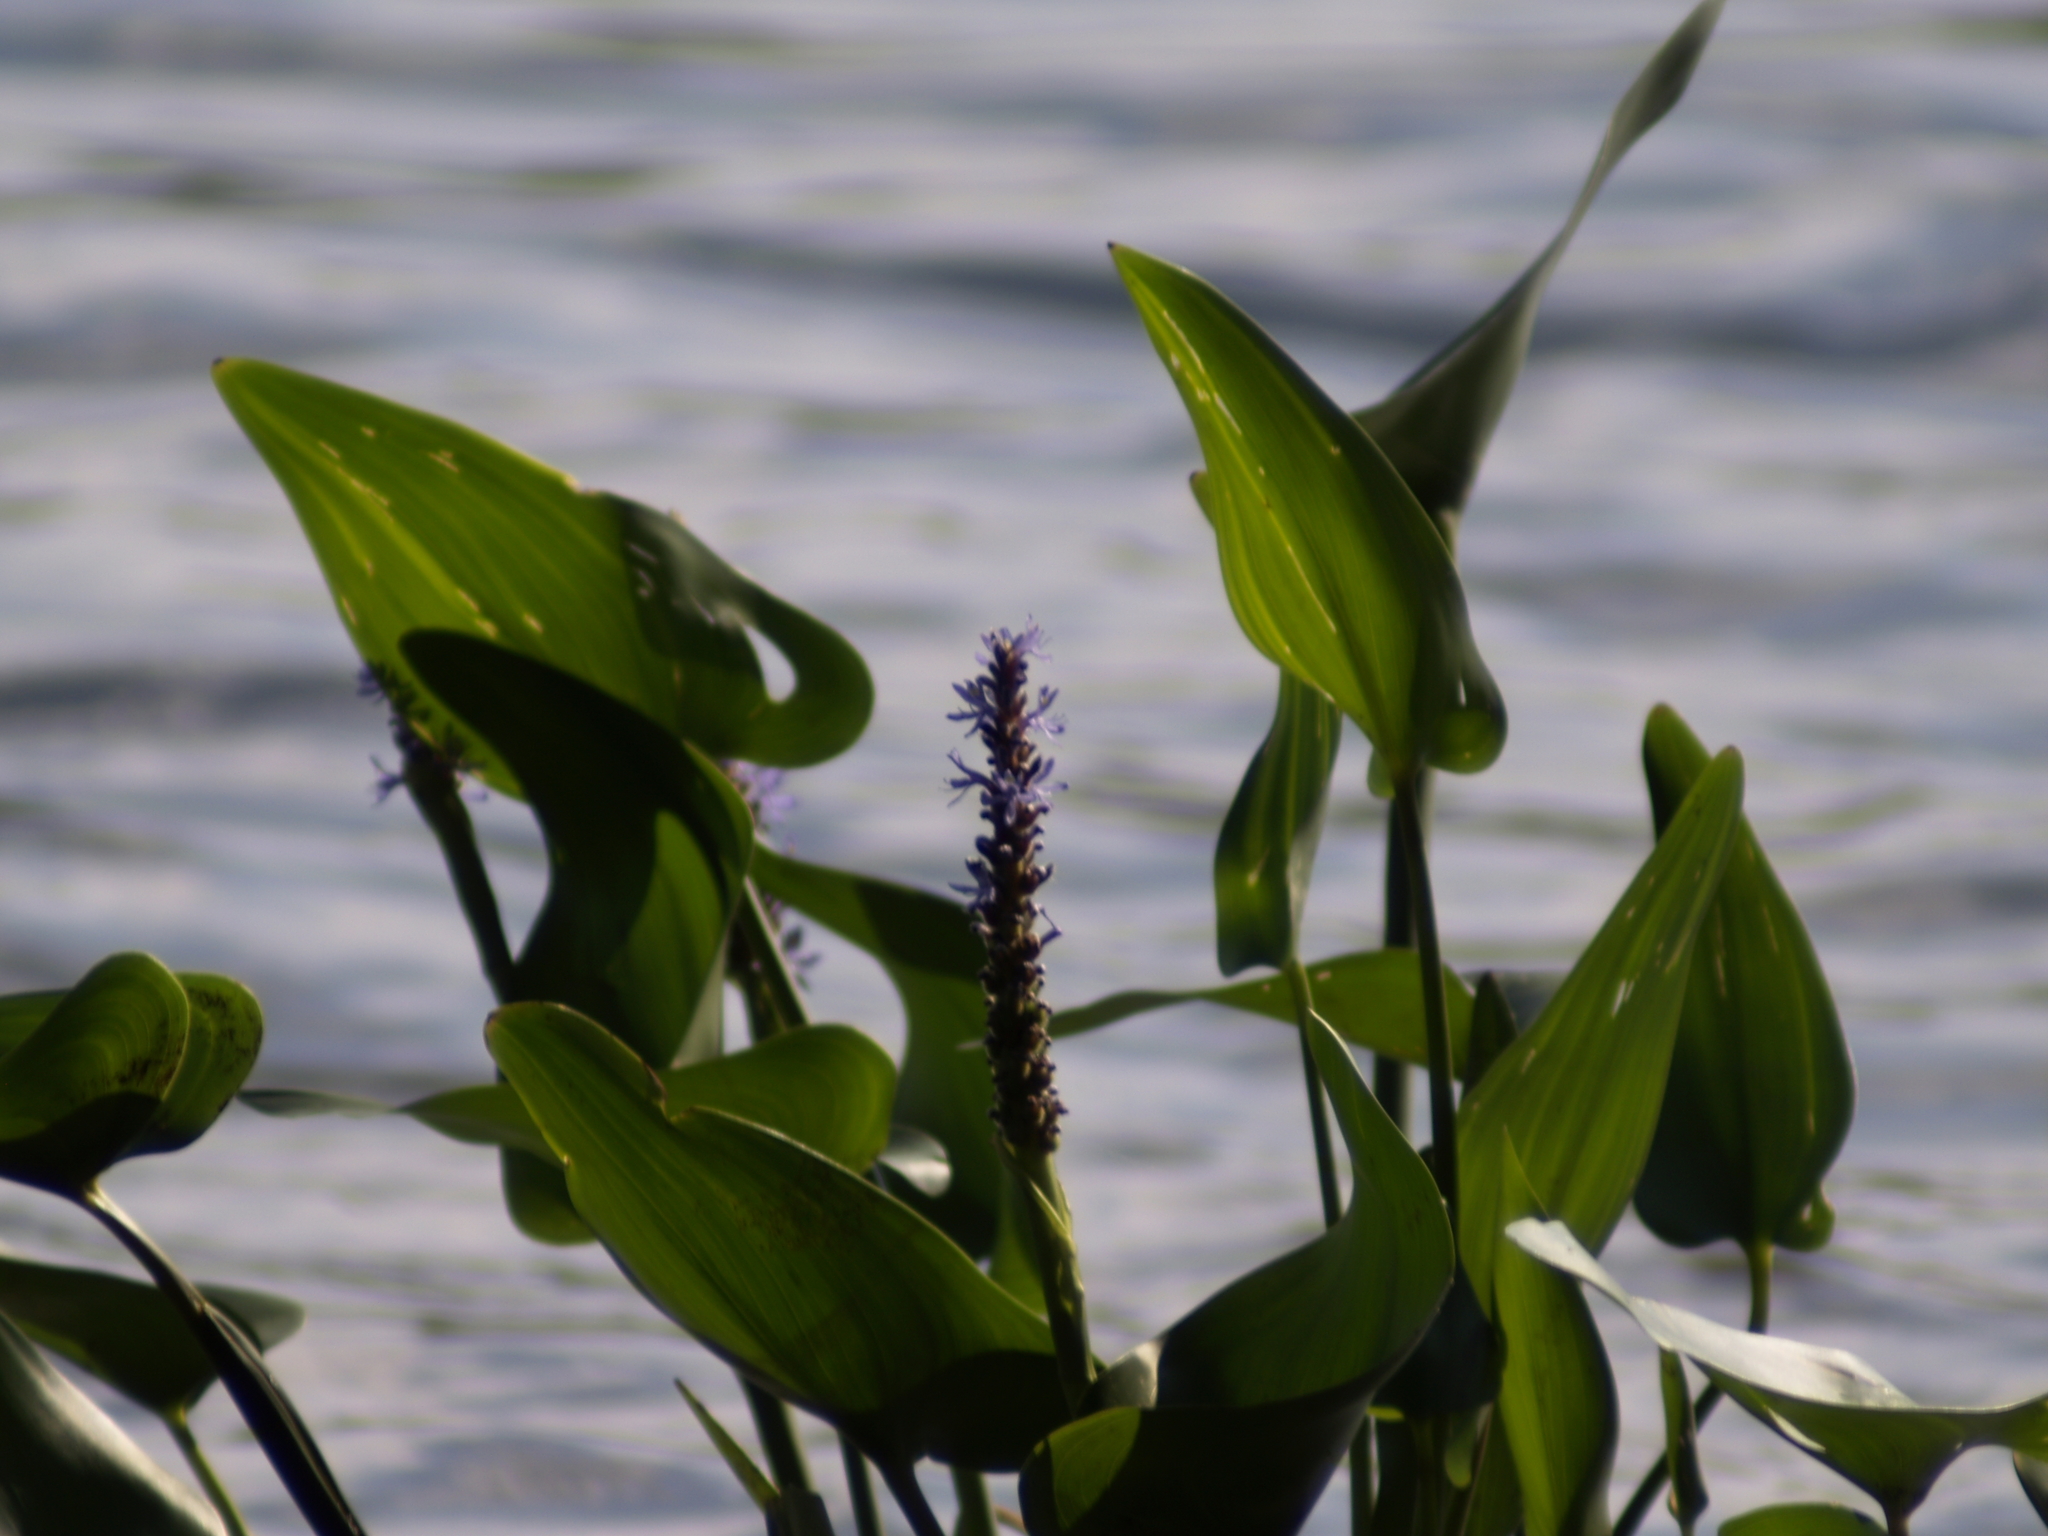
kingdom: Plantae
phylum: Tracheophyta
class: Liliopsida
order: Commelinales
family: Pontederiaceae
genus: Pontederia
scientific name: Pontederia cordata
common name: Pickerelweed
